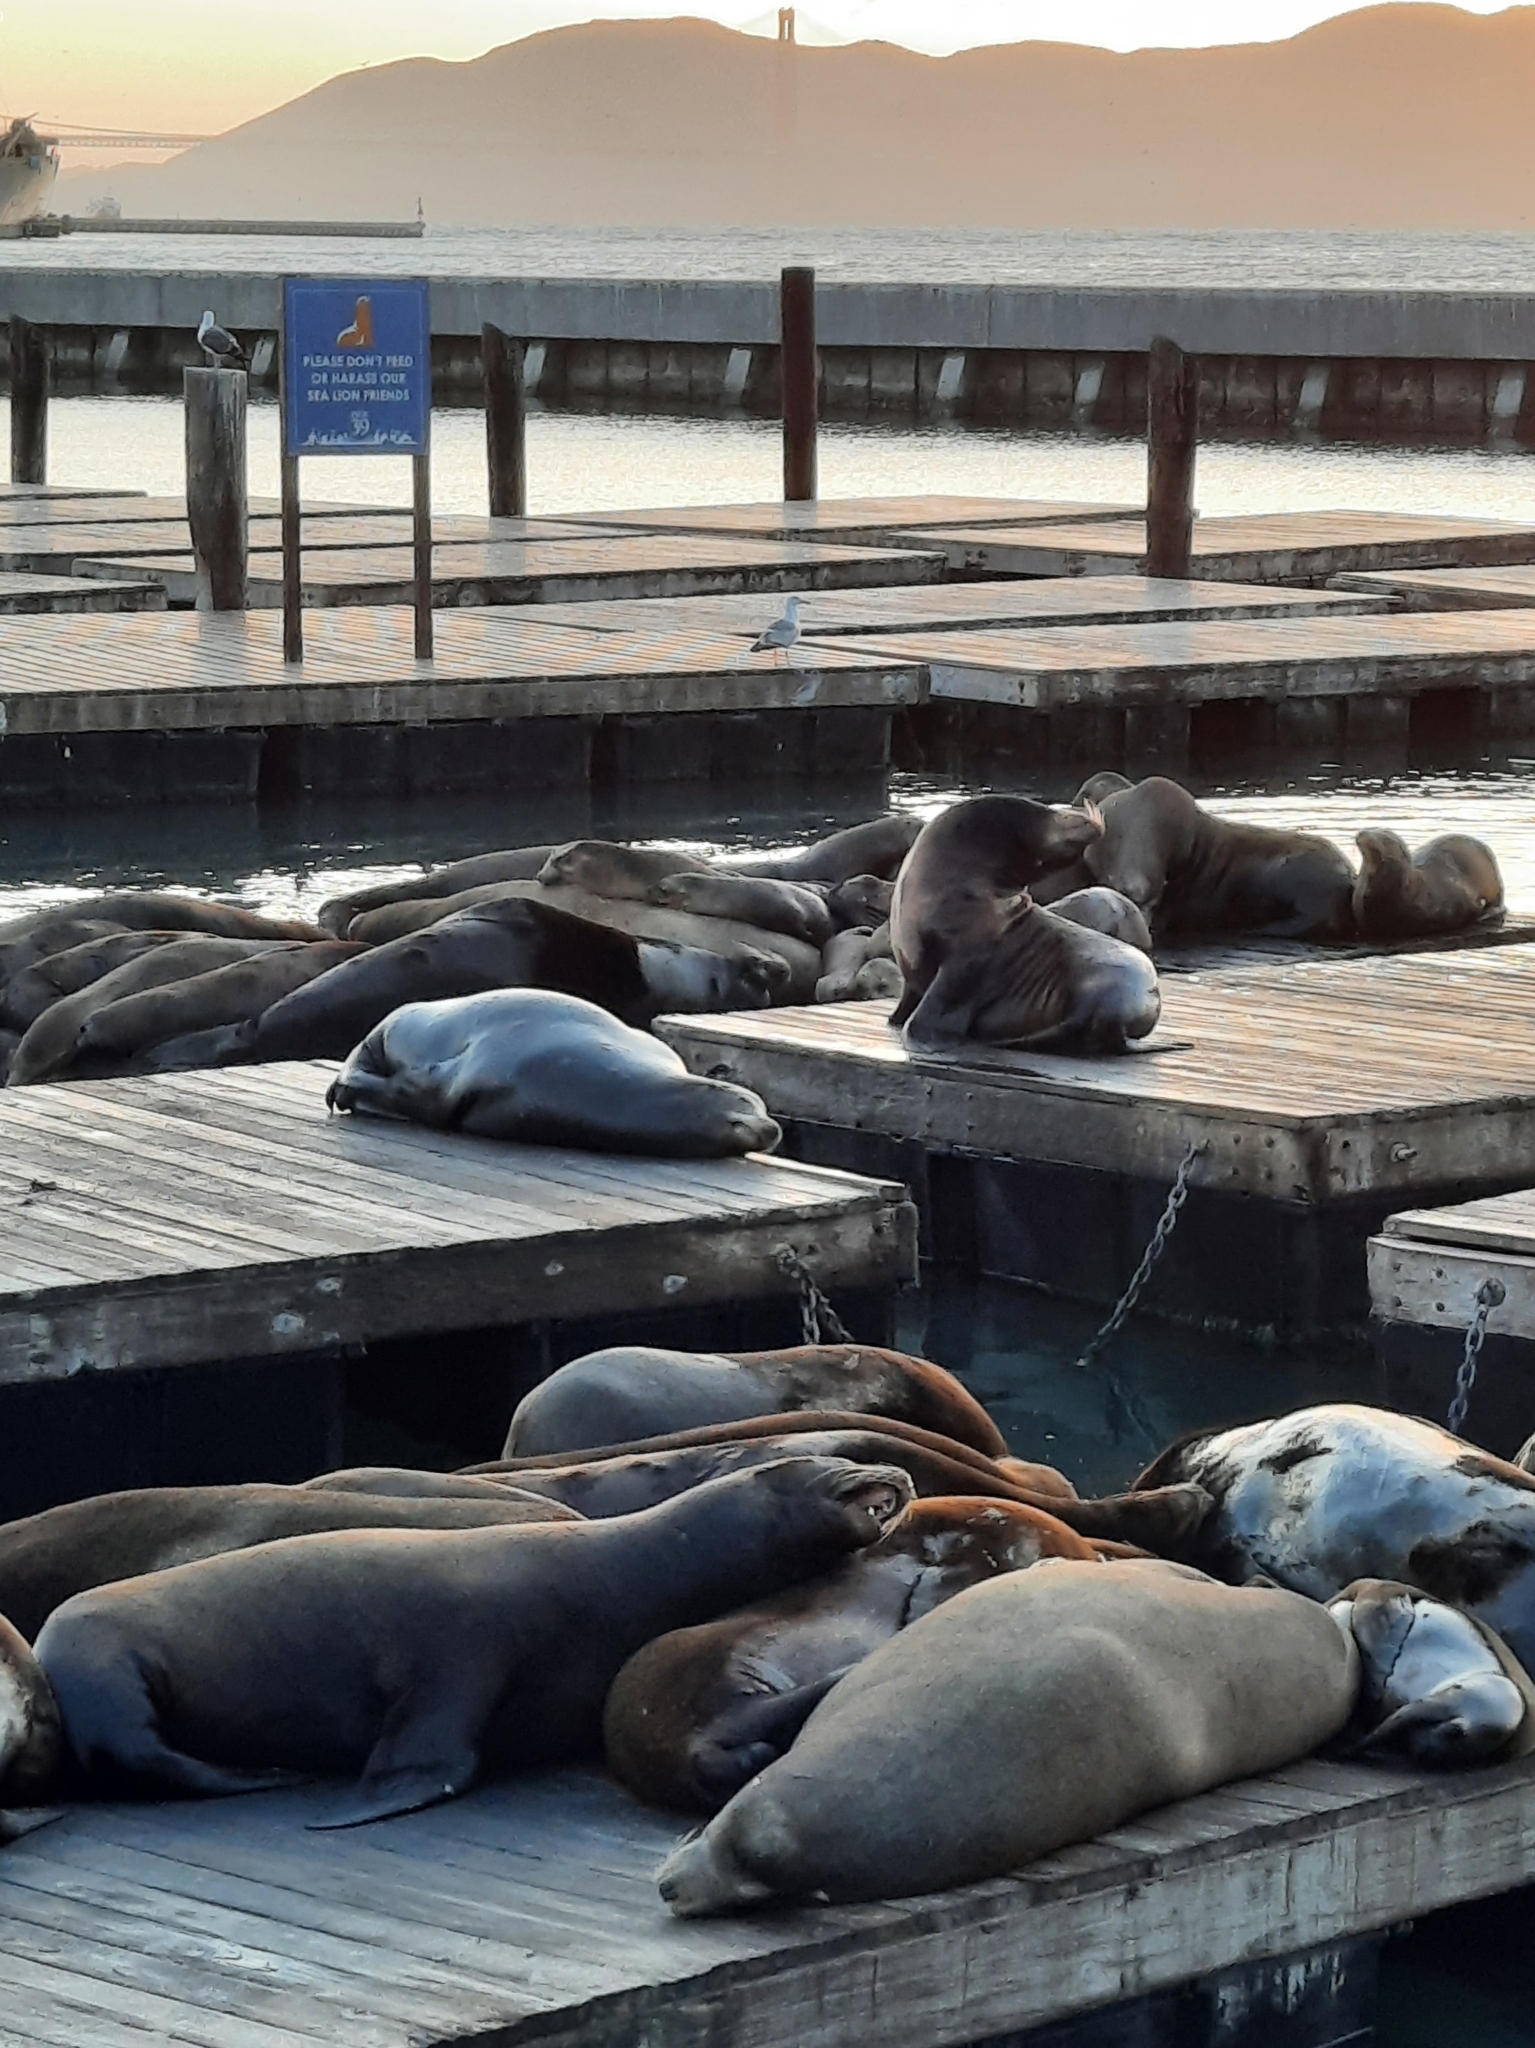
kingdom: Animalia
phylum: Chordata
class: Mammalia
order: Carnivora
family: Otariidae
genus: Zalophus
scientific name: Zalophus californianus
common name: California sea lion
